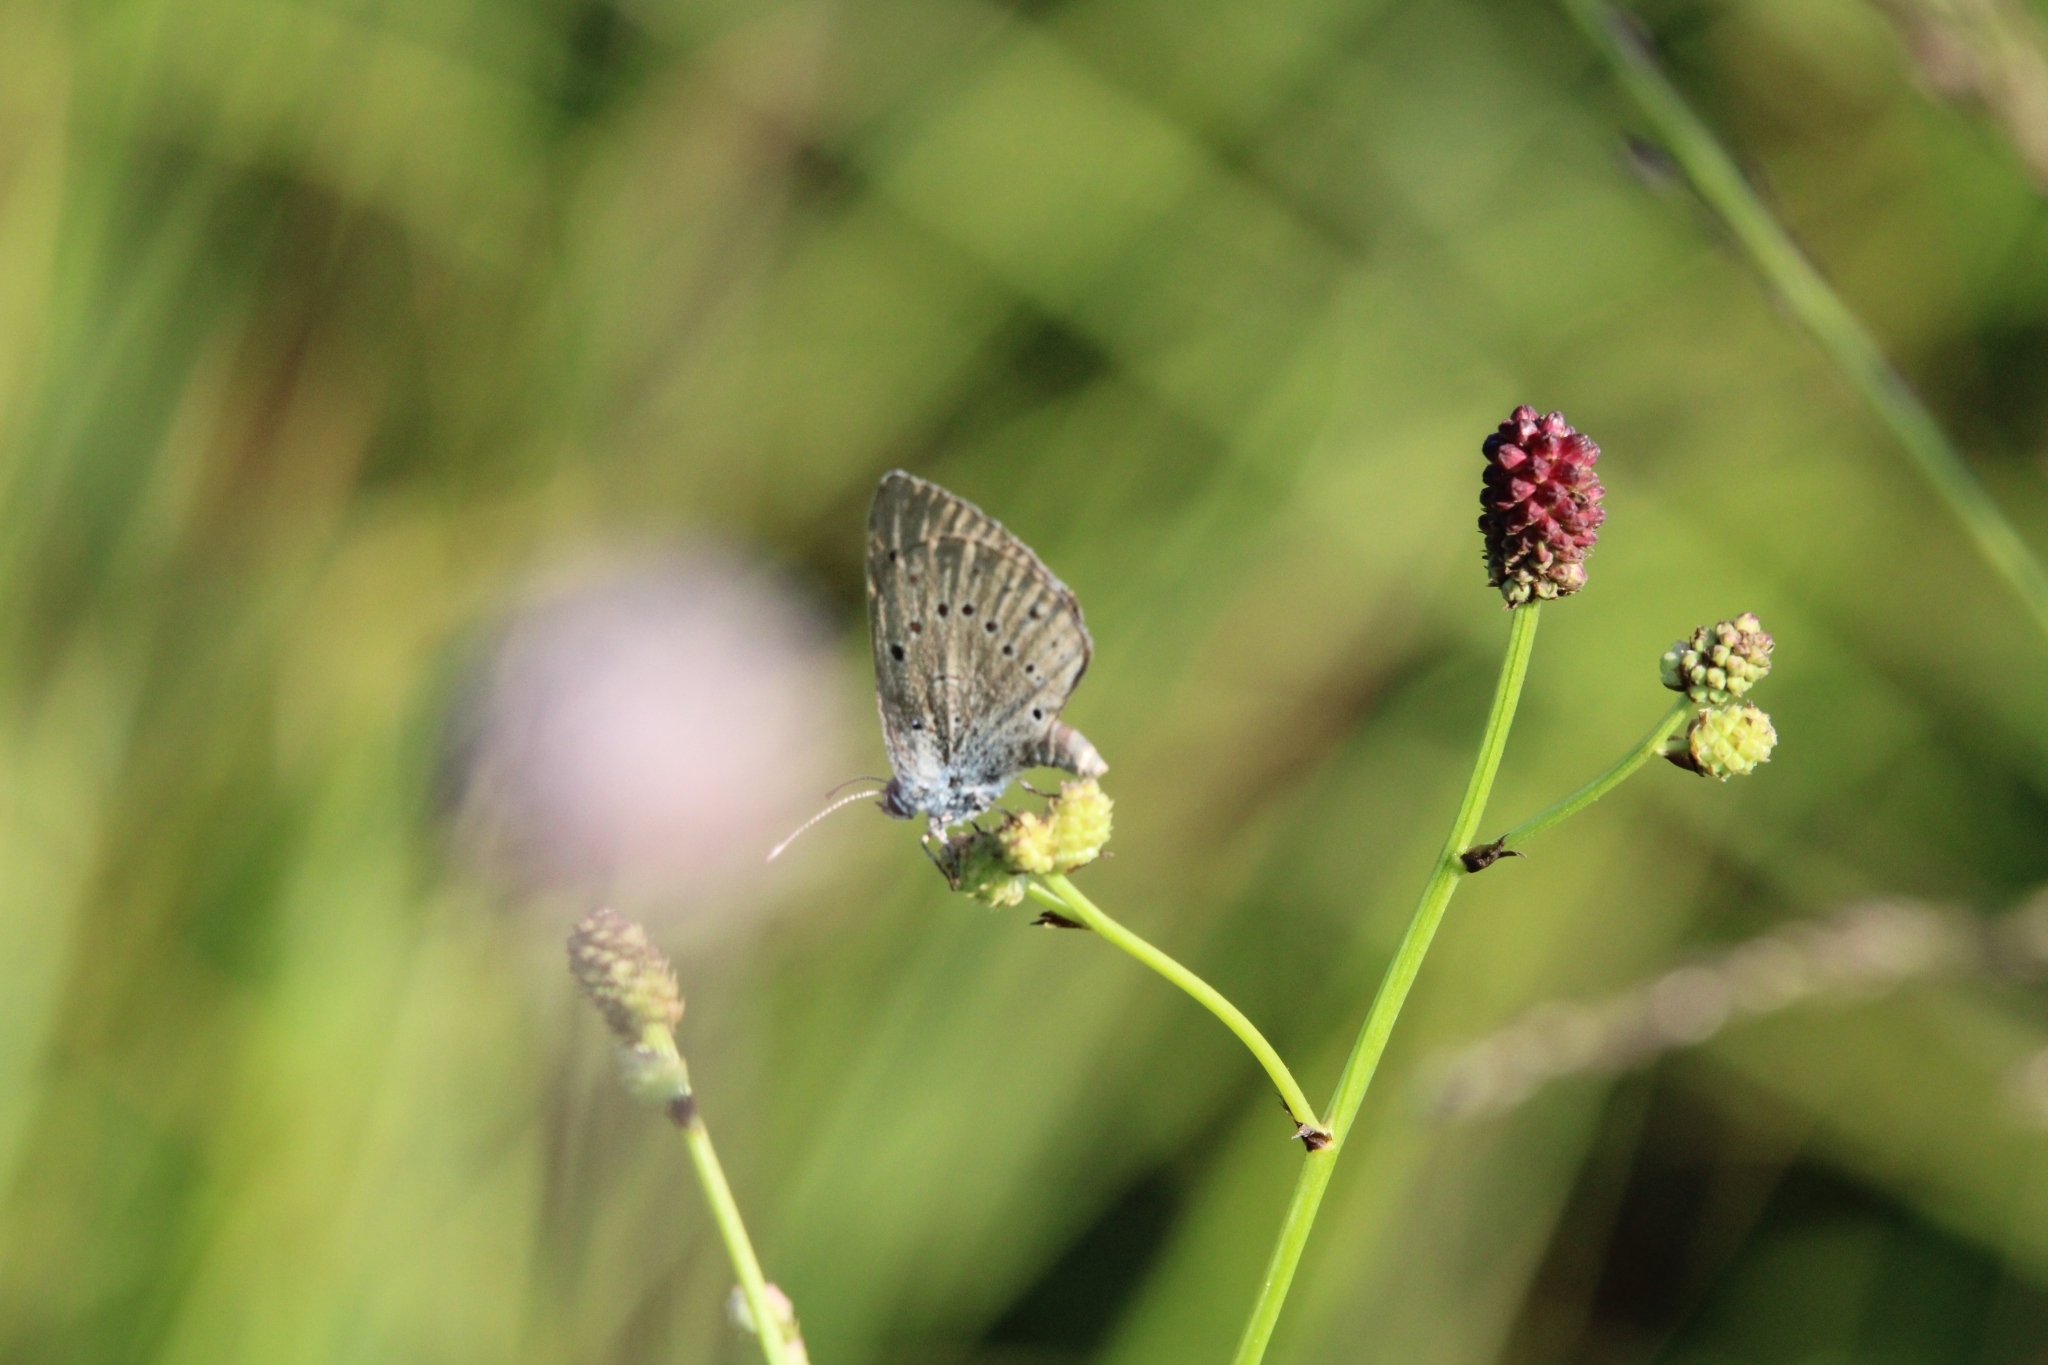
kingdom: Animalia
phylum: Arthropoda
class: Insecta
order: Lepidoptera
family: Lycaenidae
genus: Phengaris
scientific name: Phengaris teleius
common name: Scarce large blue
